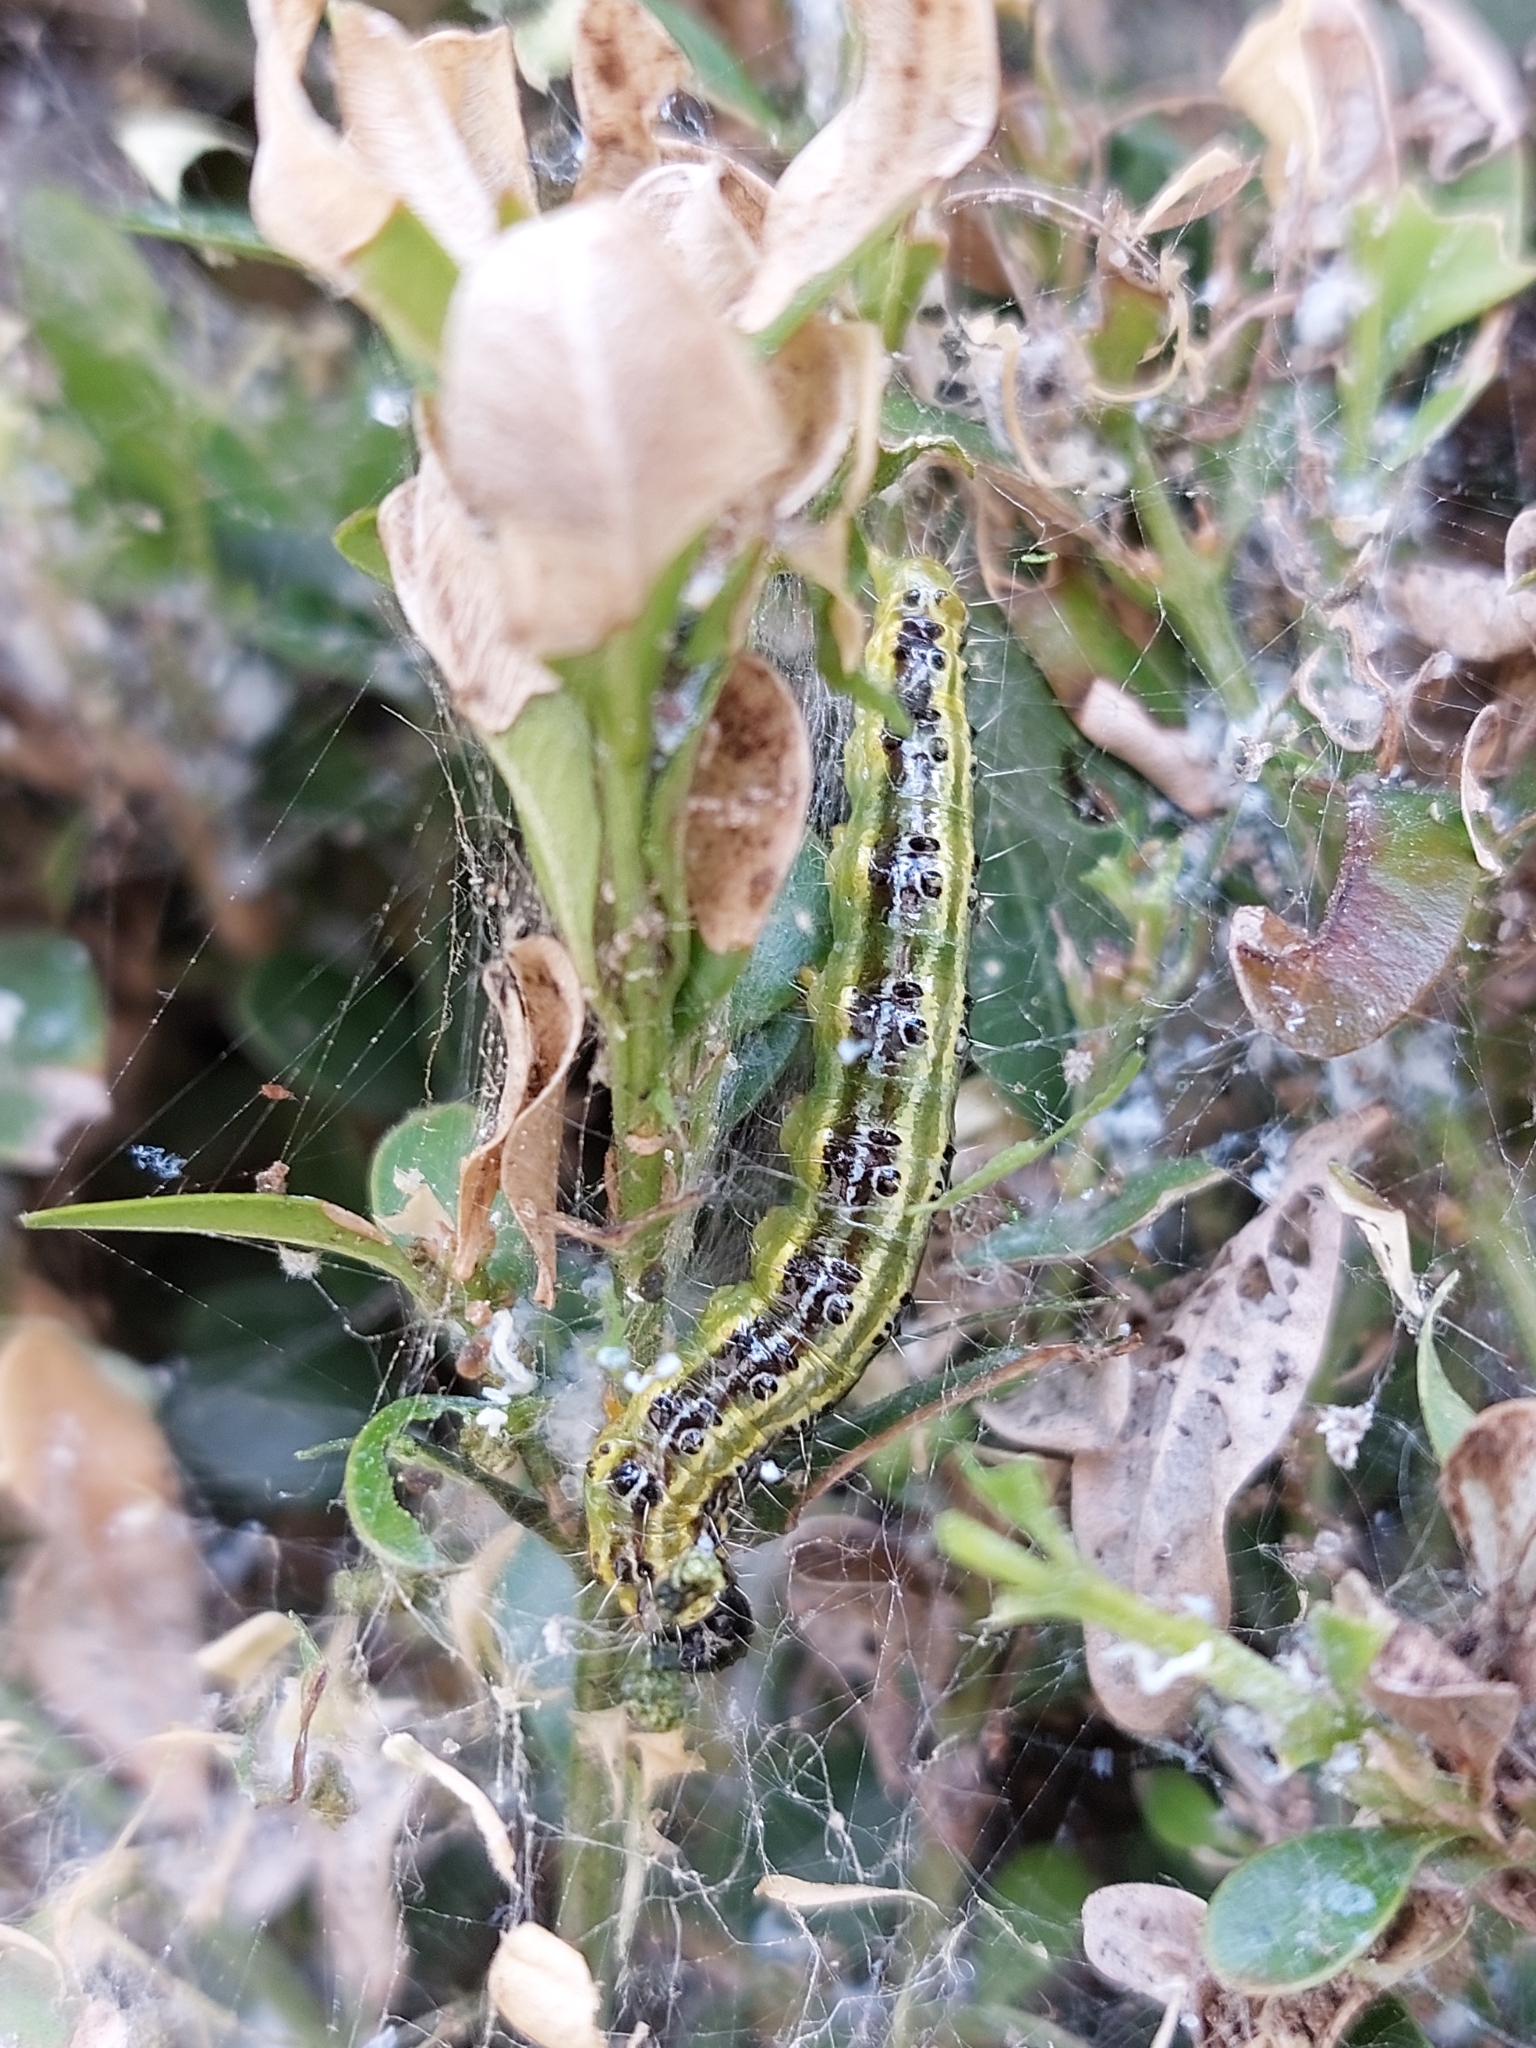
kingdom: Animalia
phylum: Arthropoda
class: Insecta
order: Lepidoptera
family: Crambidae
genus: Cydalima
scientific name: Cydalima perspectalis
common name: Box tree moth
